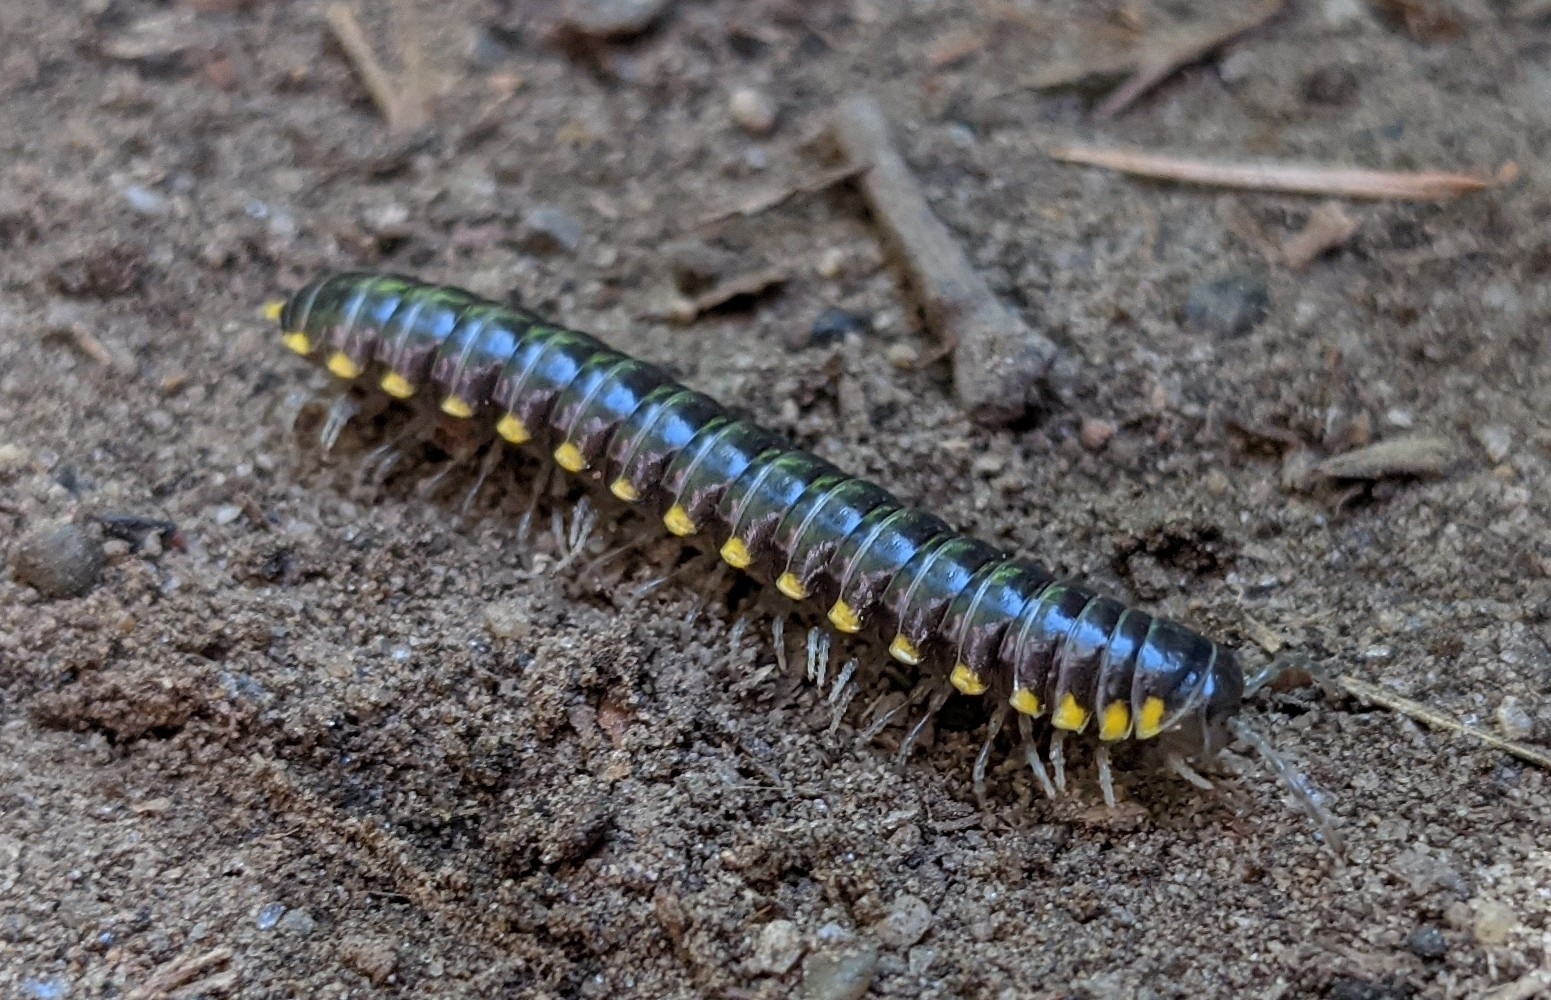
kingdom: Animalia
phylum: Arthropoda
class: Diplopoda
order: Polydesmida
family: Xystodesmidae
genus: Harpaphe
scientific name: Harpaphe haydeniana
